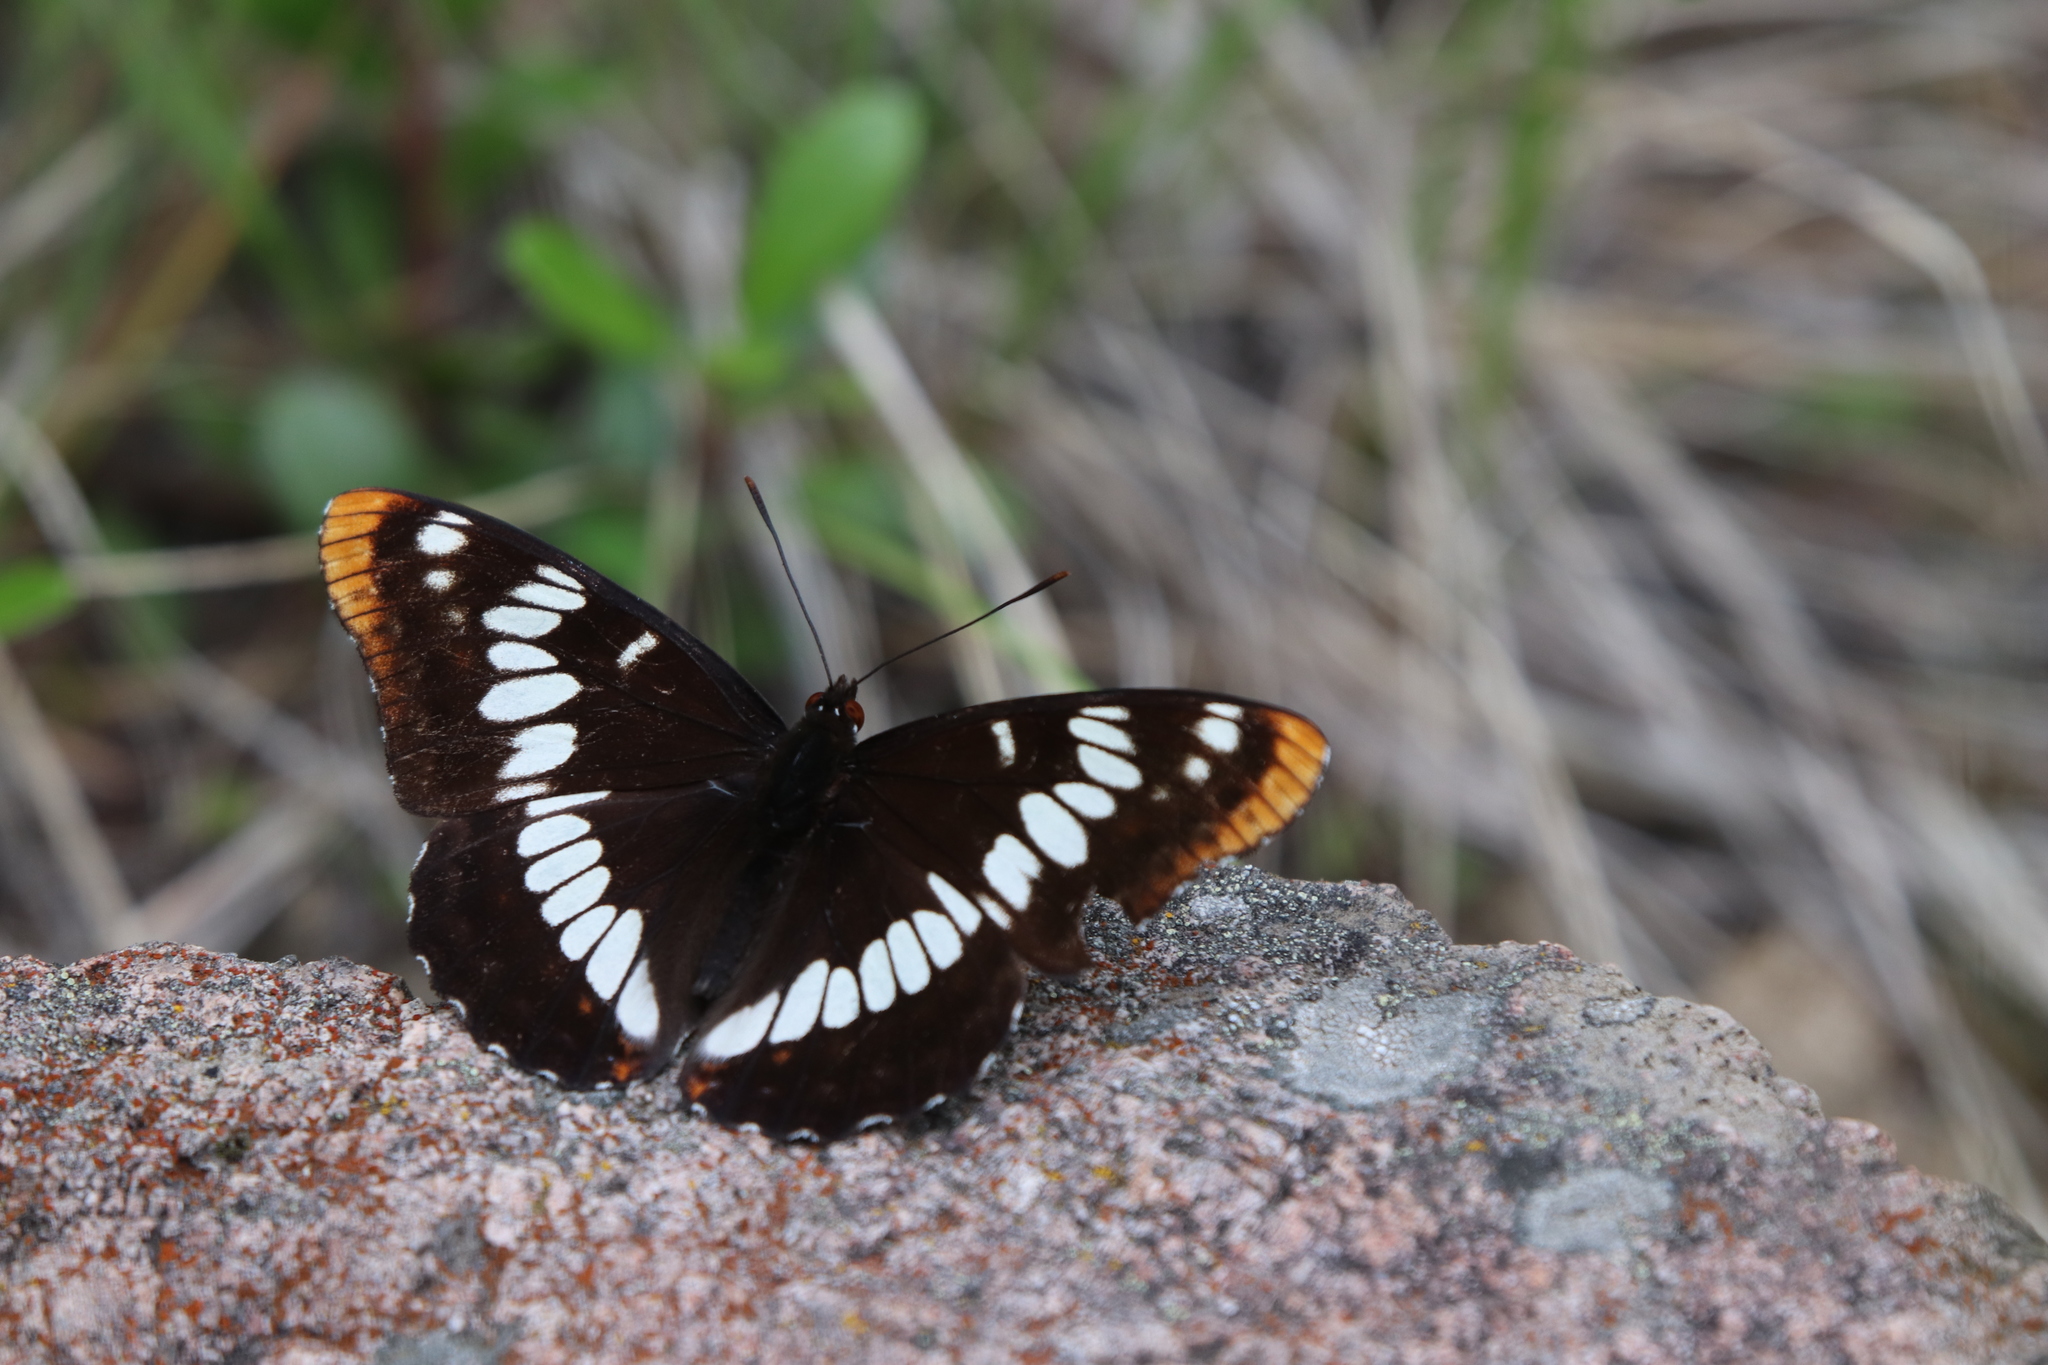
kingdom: Animalia
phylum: Arthropoda
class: Insecta
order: Lepidoptera
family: Nymphalidae
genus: Limenitis
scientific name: Limenitis lorquini
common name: Lorquin's admiral
